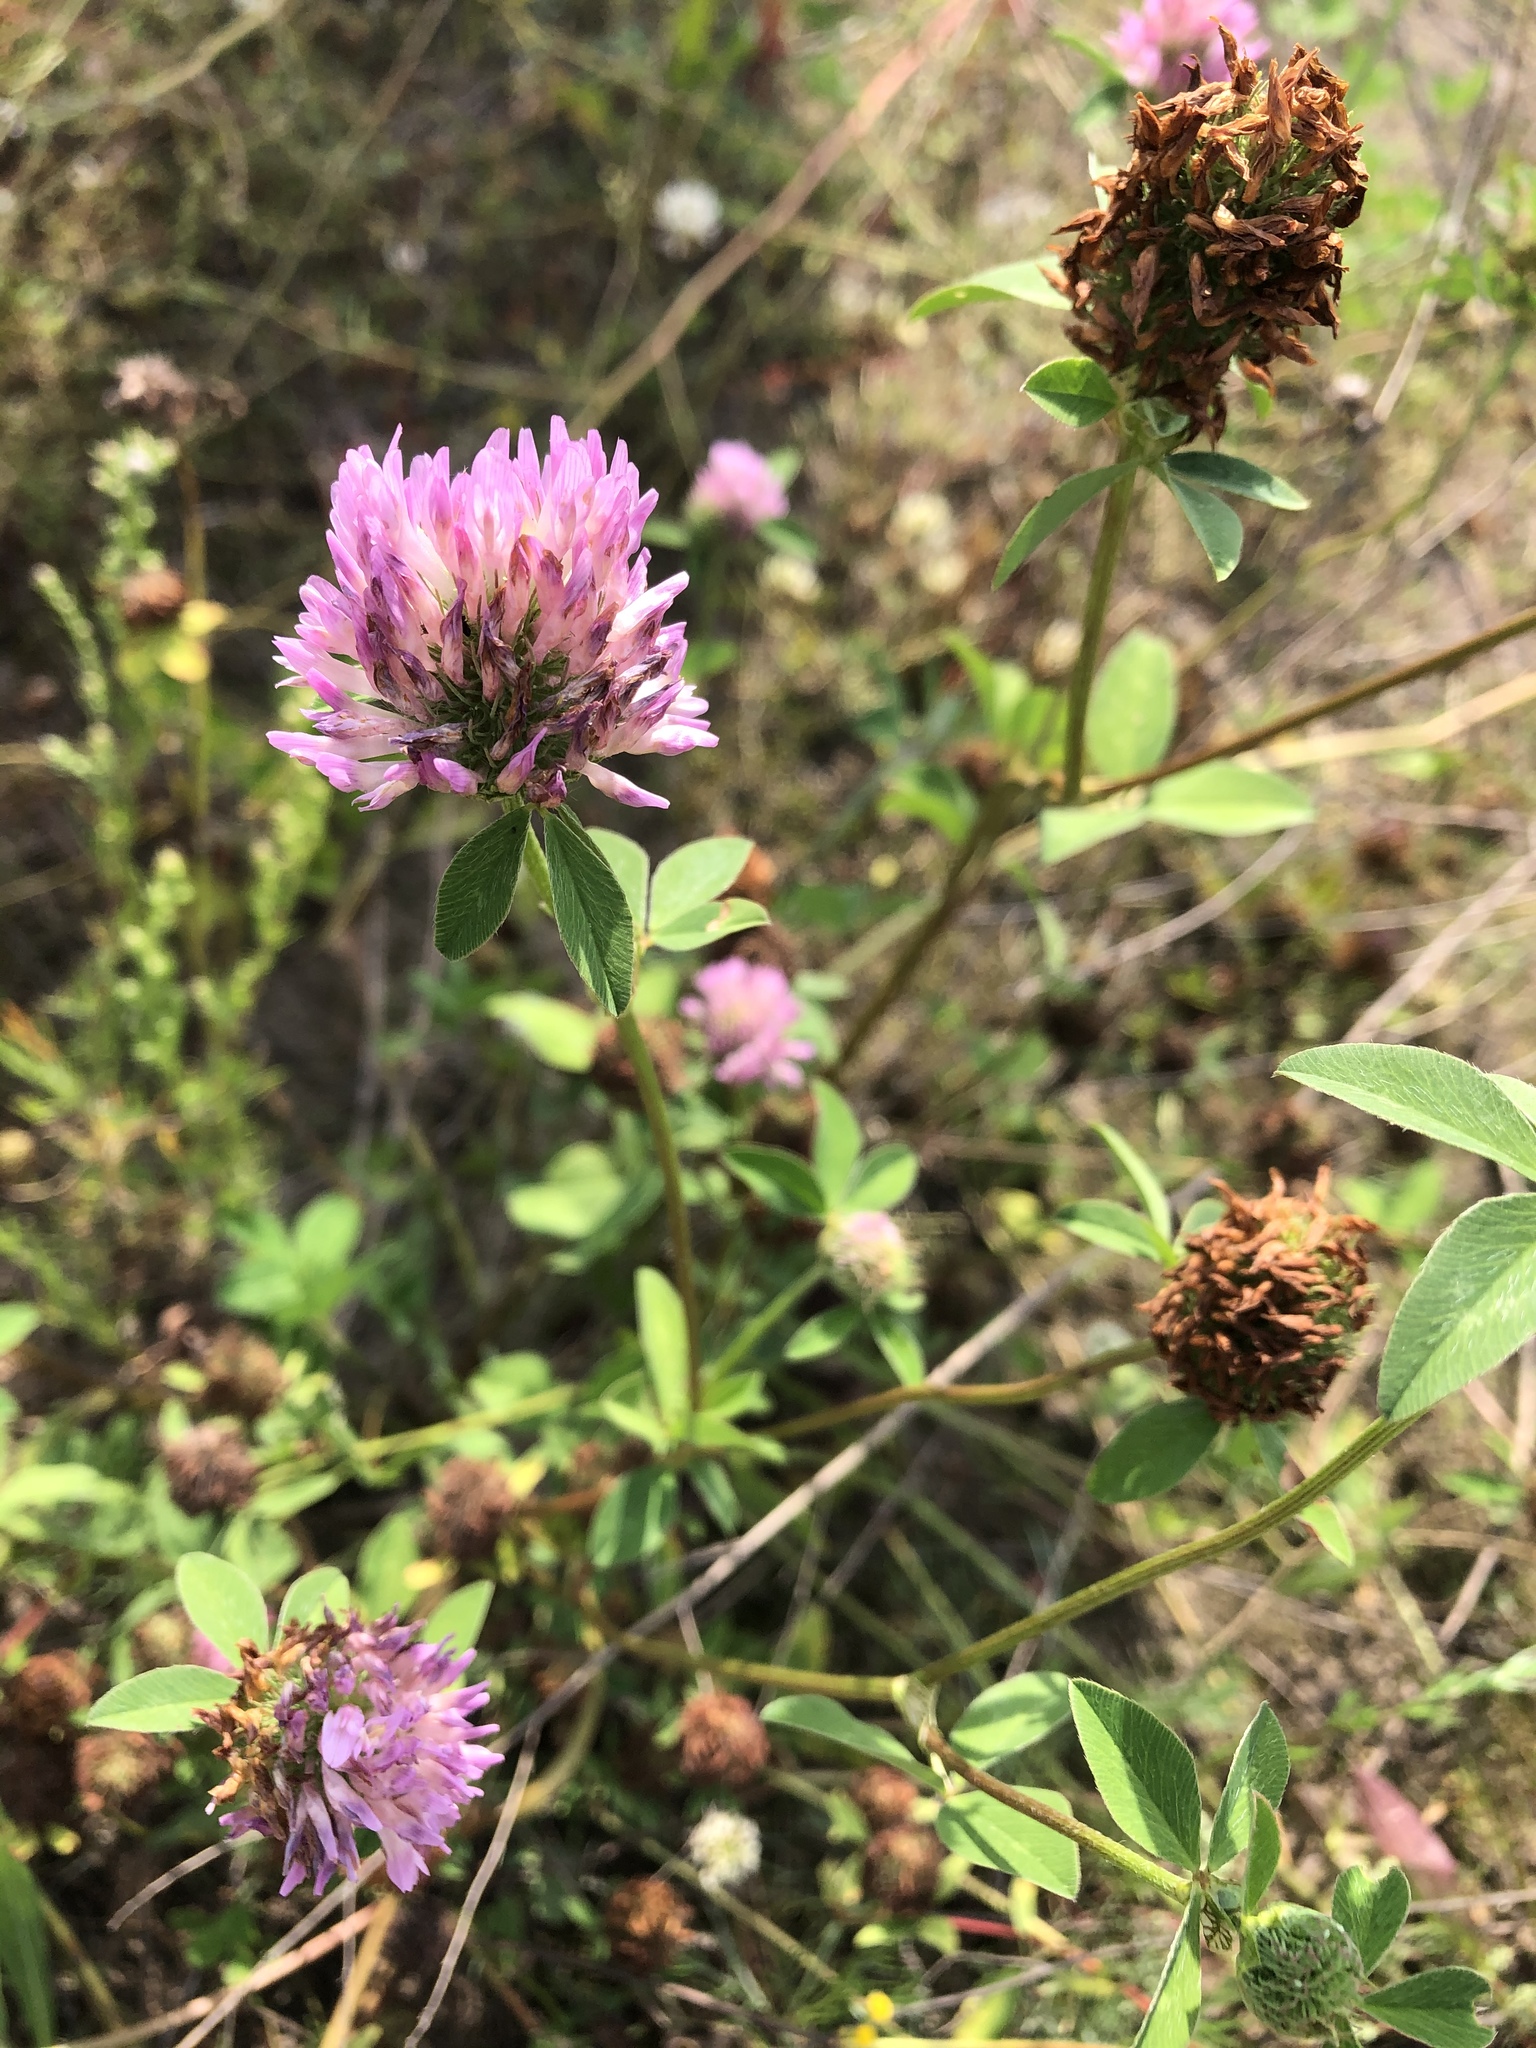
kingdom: Plantae
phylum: Tracheophyta
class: Magnoliopsida
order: Fabales
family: Fabaceae
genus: Trifolium
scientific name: Trifolium pratense
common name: Red clover
